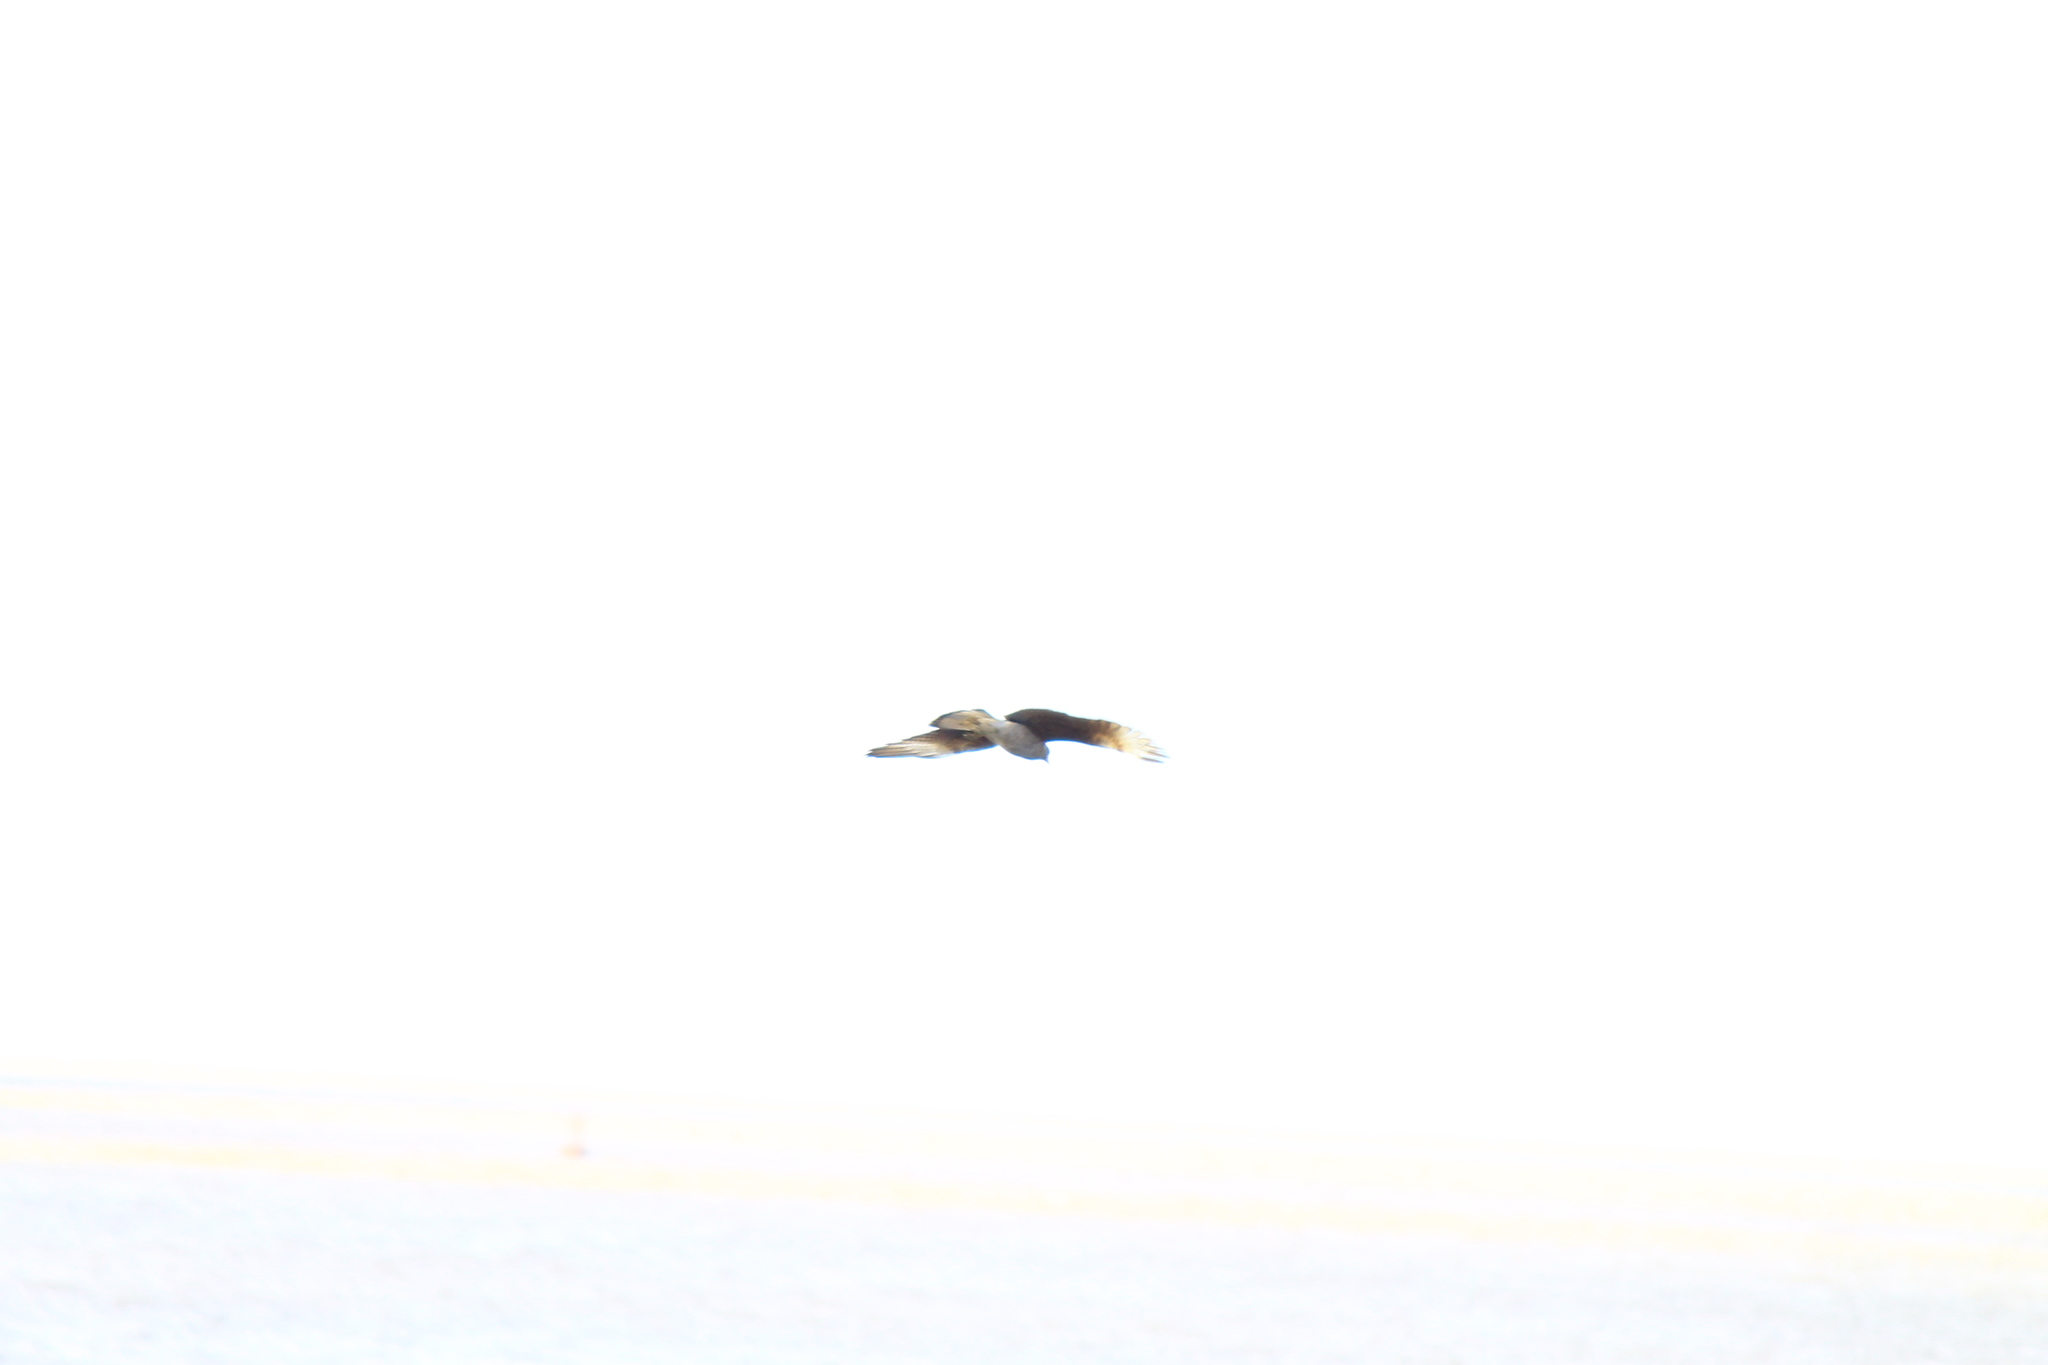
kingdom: Animalia
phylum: Chordata
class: Aves
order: Falconiformes
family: Falconidae
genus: Daptrius
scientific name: Daptrius
